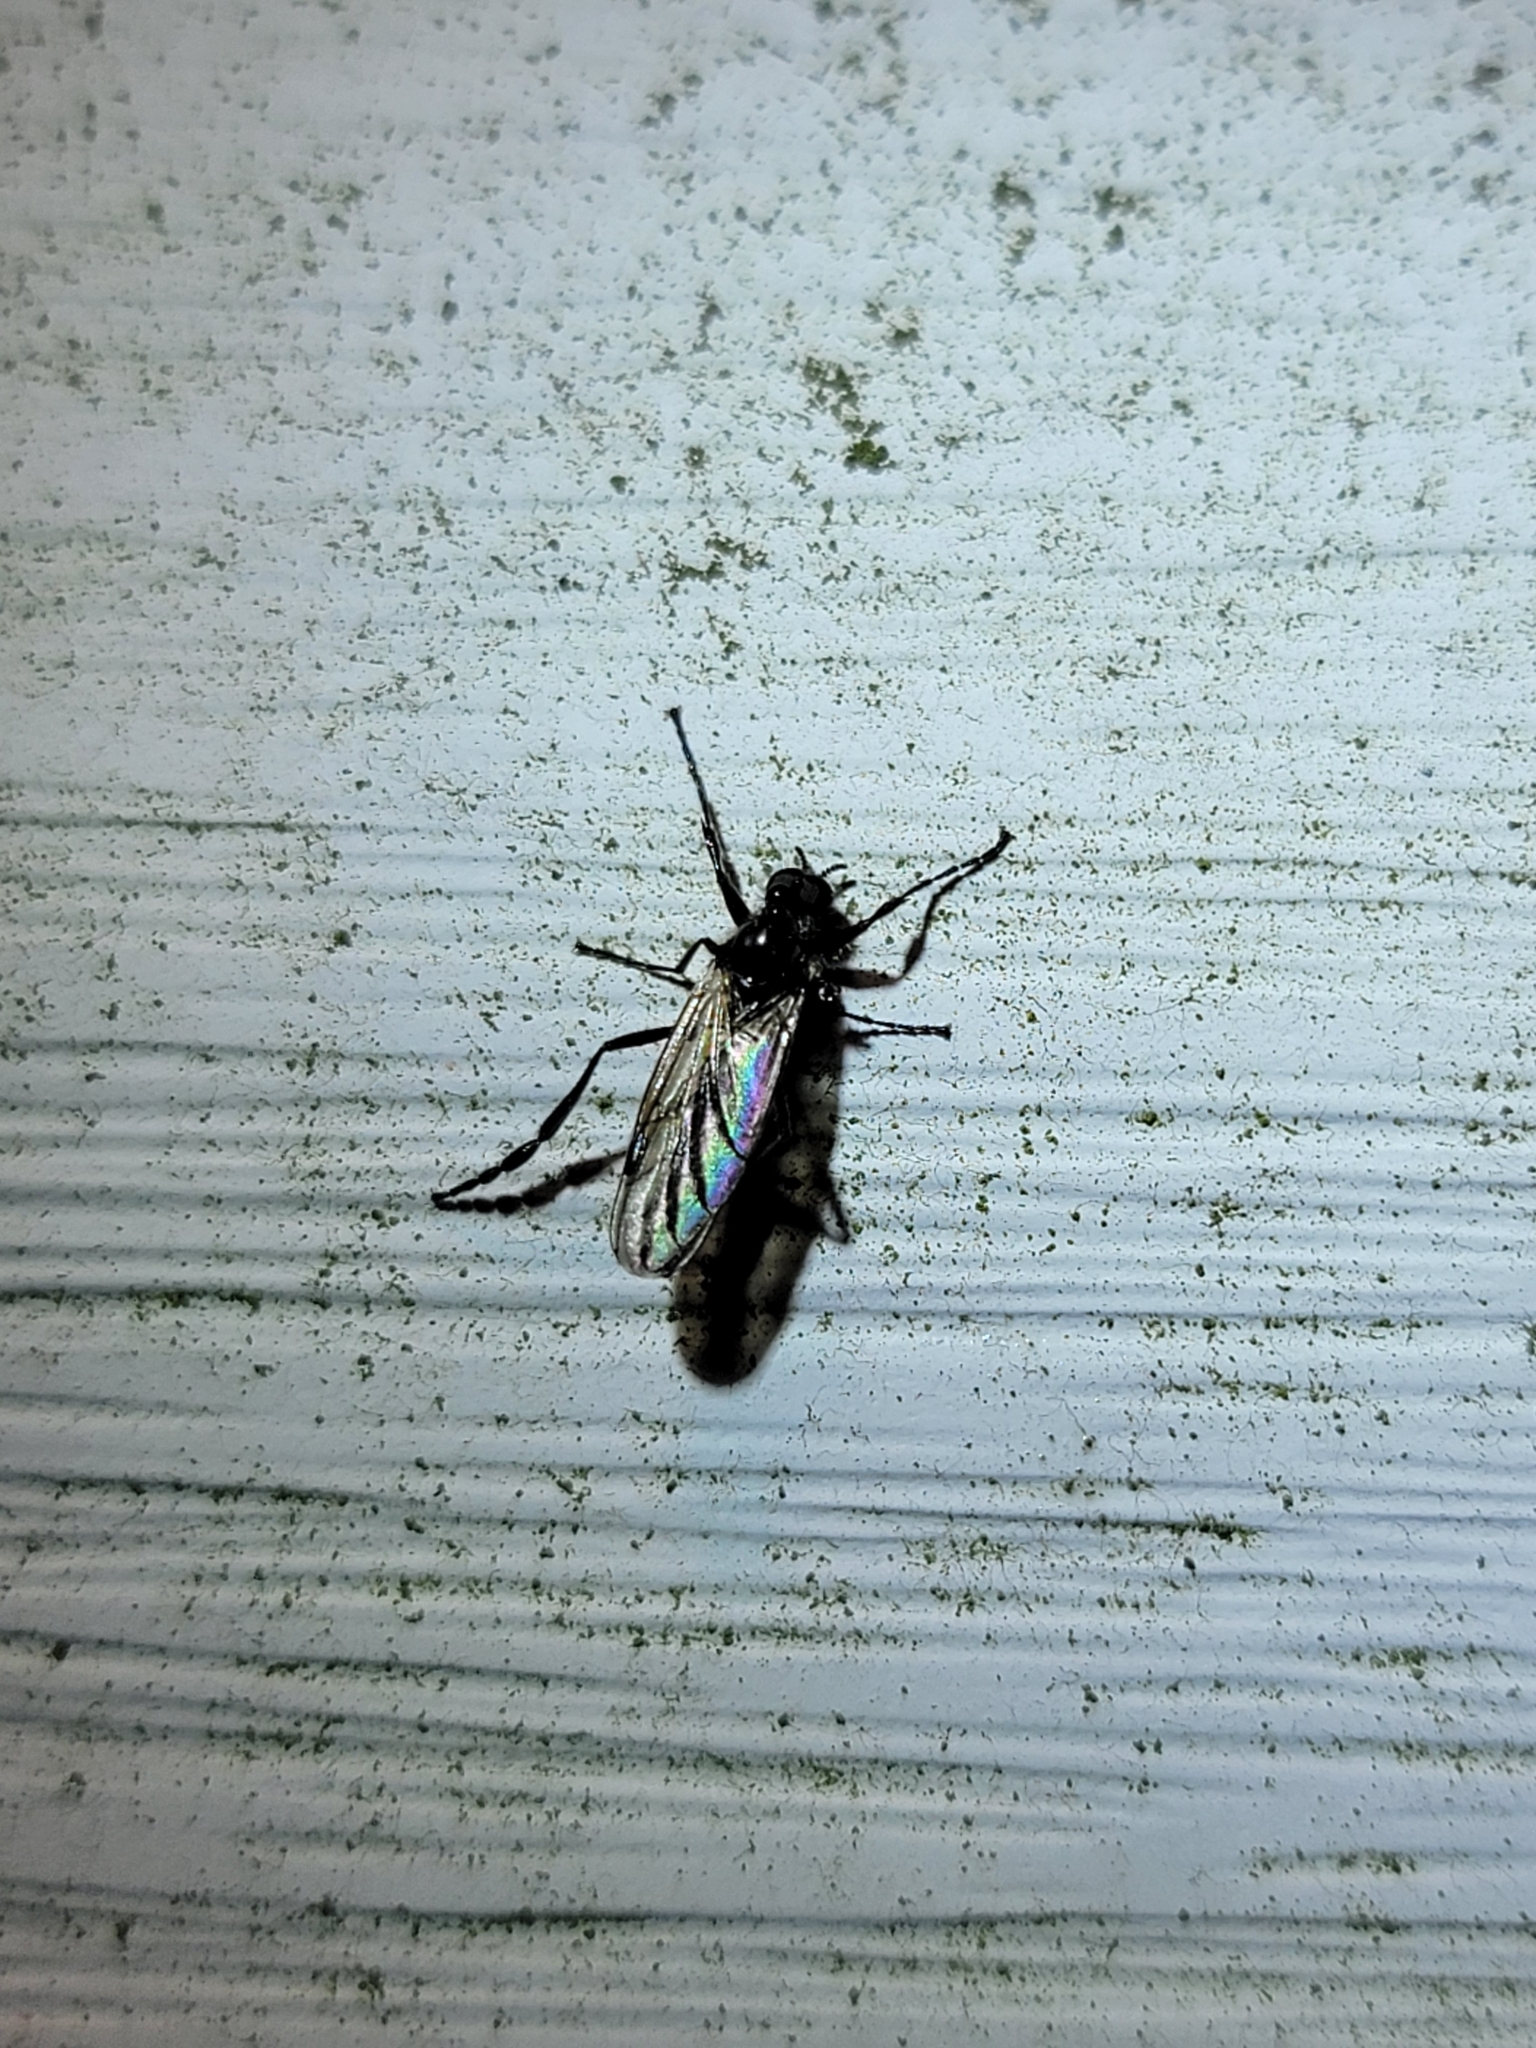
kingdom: Animalia
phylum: Arthropoda
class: Insecta
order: Diptera
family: Bibionidae
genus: Bibio
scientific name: Bibio longipes
